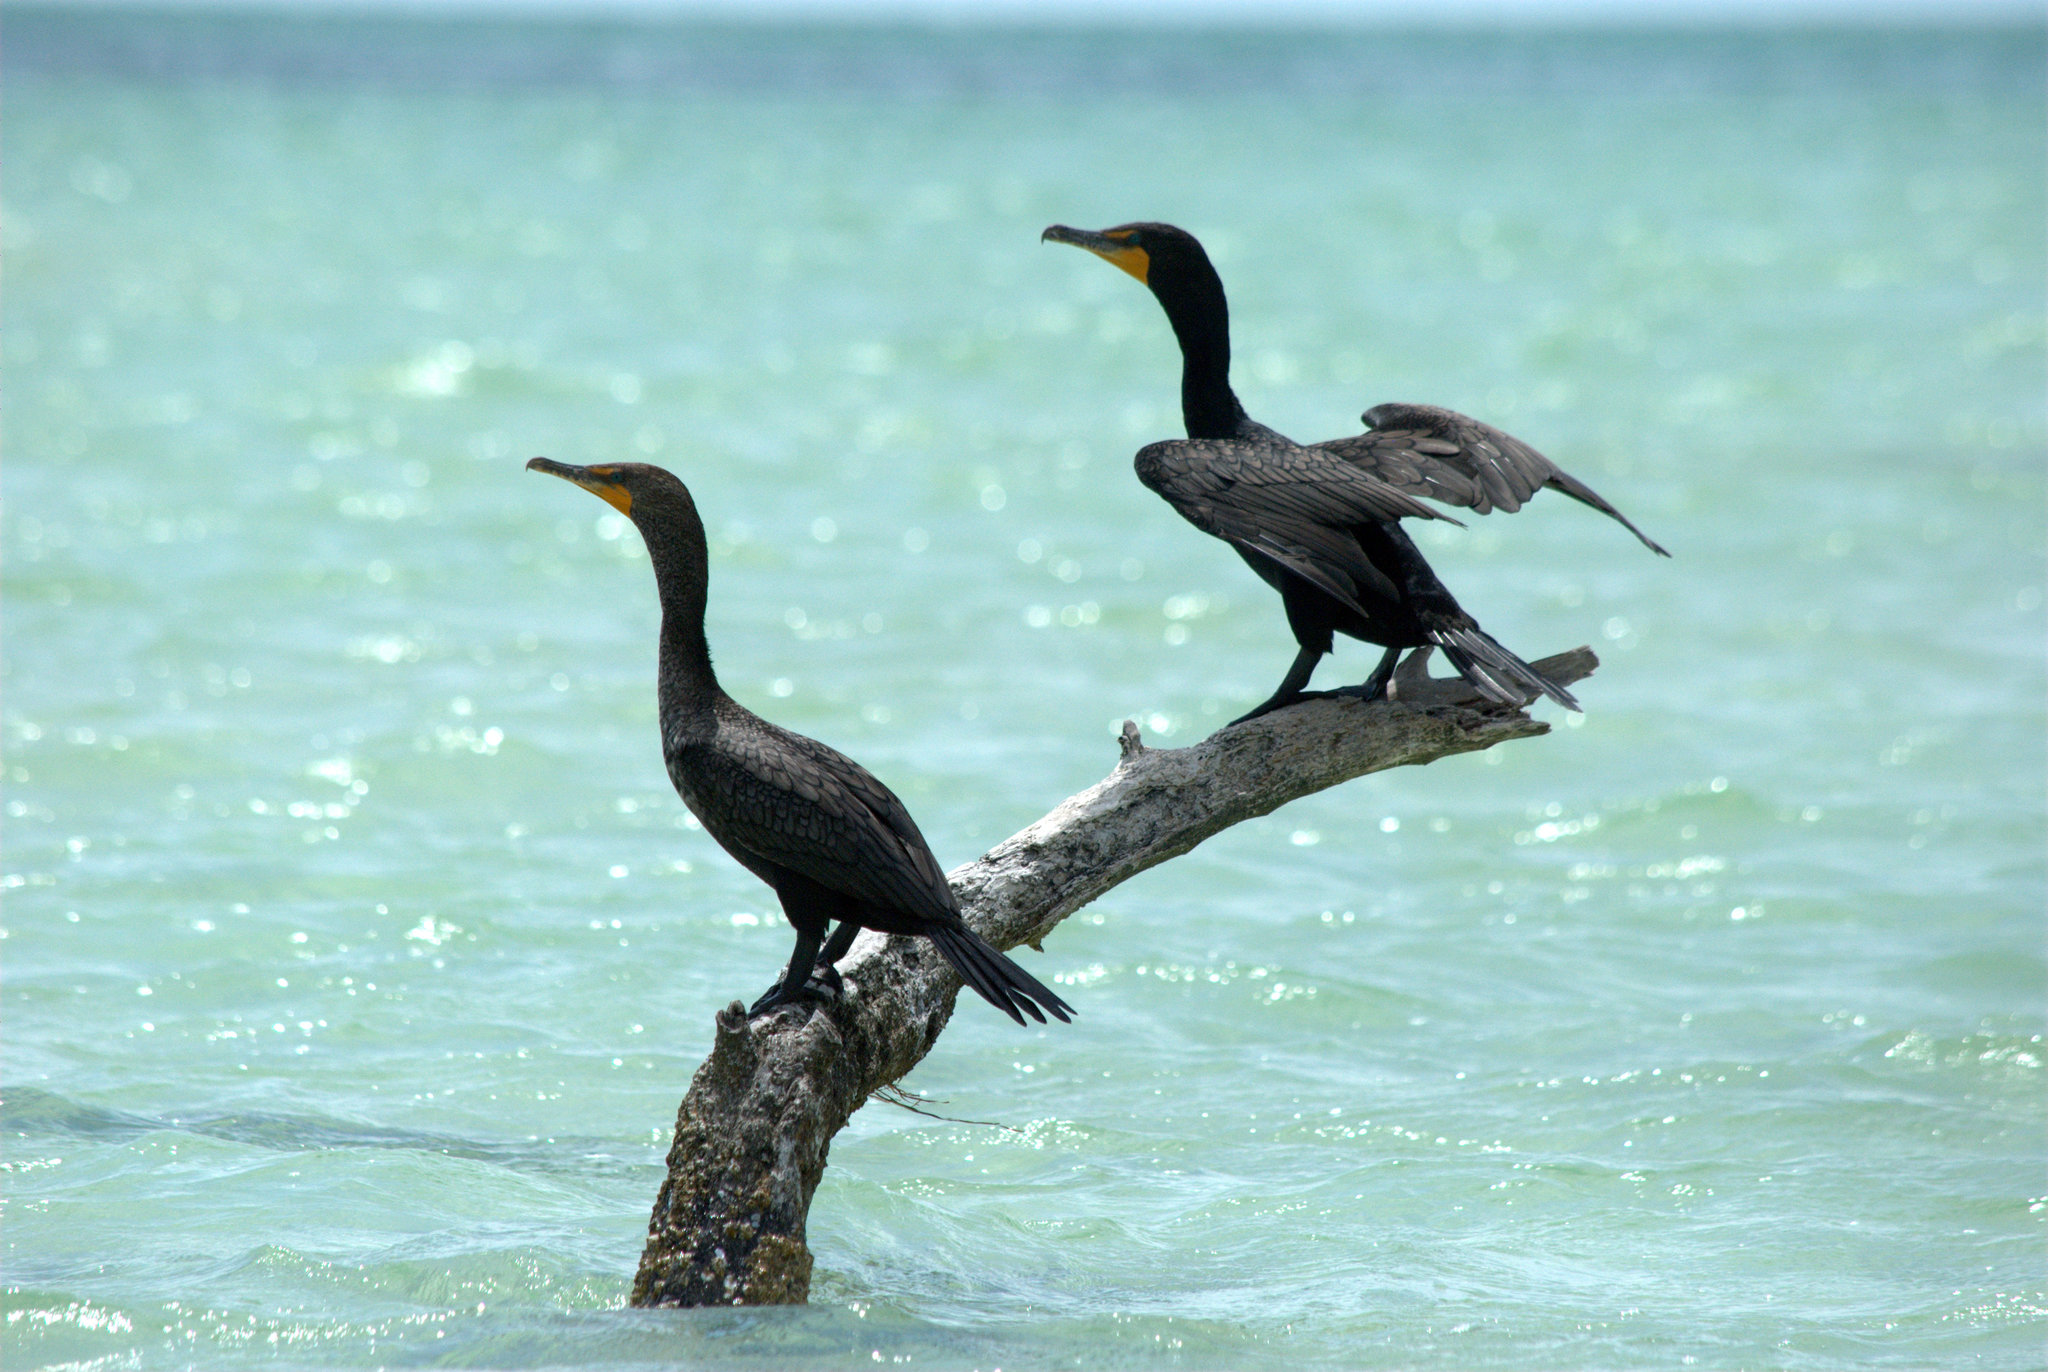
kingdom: Animalia
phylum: Chordata
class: Aves
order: Suliformes
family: Phalacrocoracidae
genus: Phalacrocorax
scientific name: Phalacrocorax auritus
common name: Double-crested cormorant
